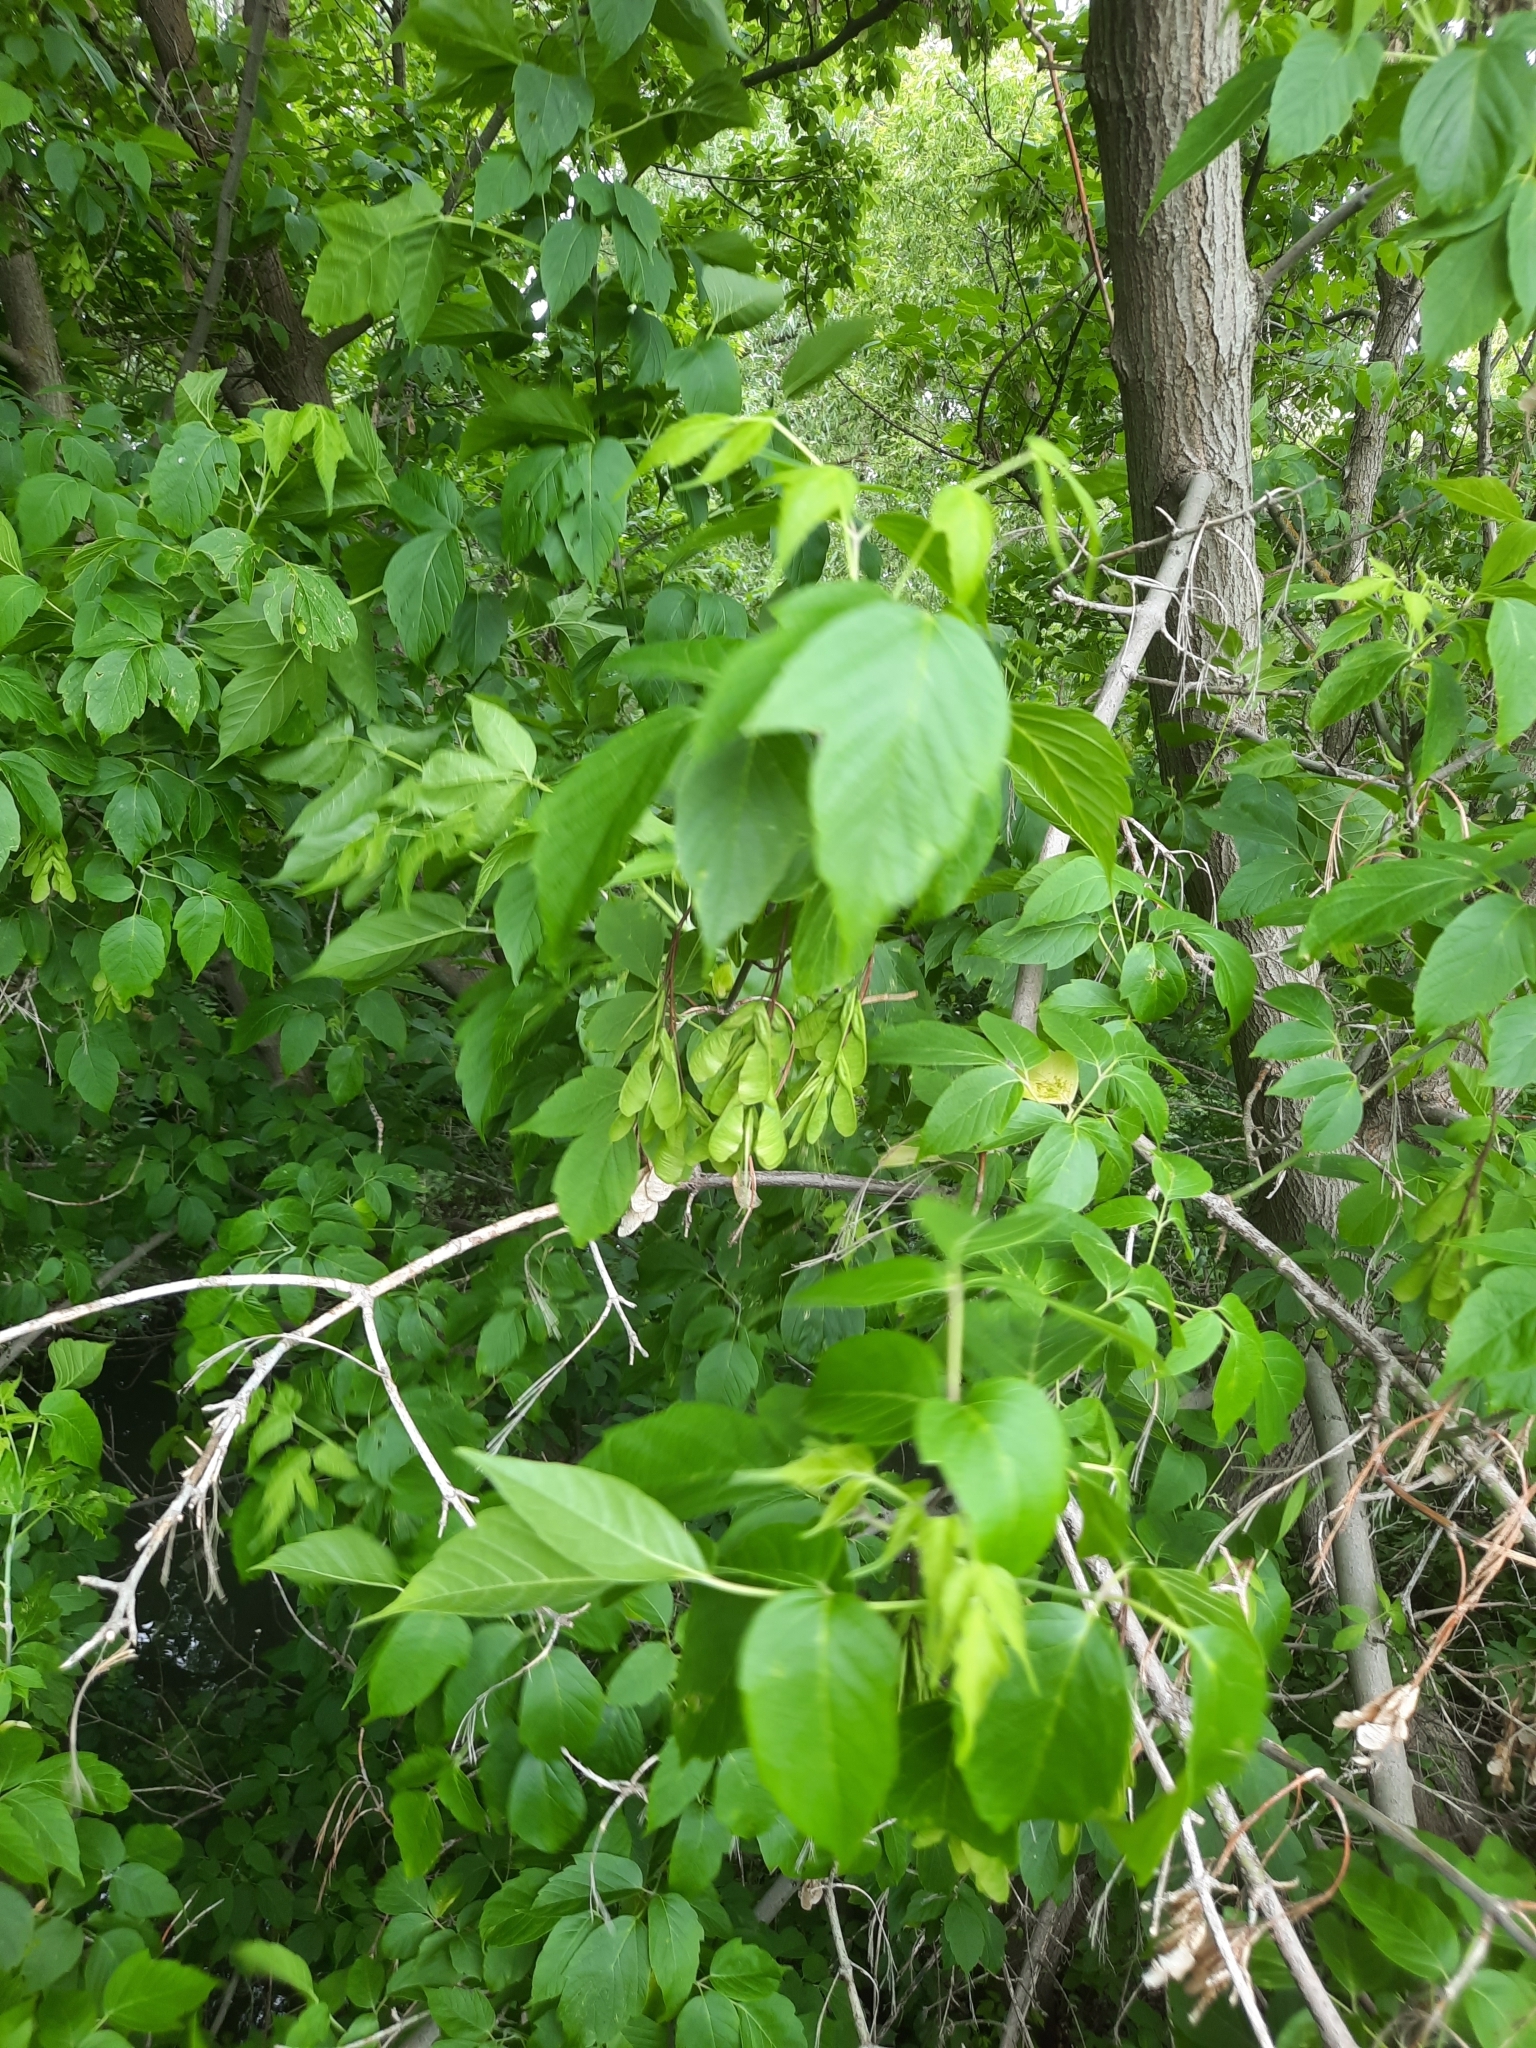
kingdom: Plantae
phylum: Tracheophyta
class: Magnoliopsida
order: Sapindales
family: Sapindaceae
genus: Acer
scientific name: Acer negundo
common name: Ashleaf maple
